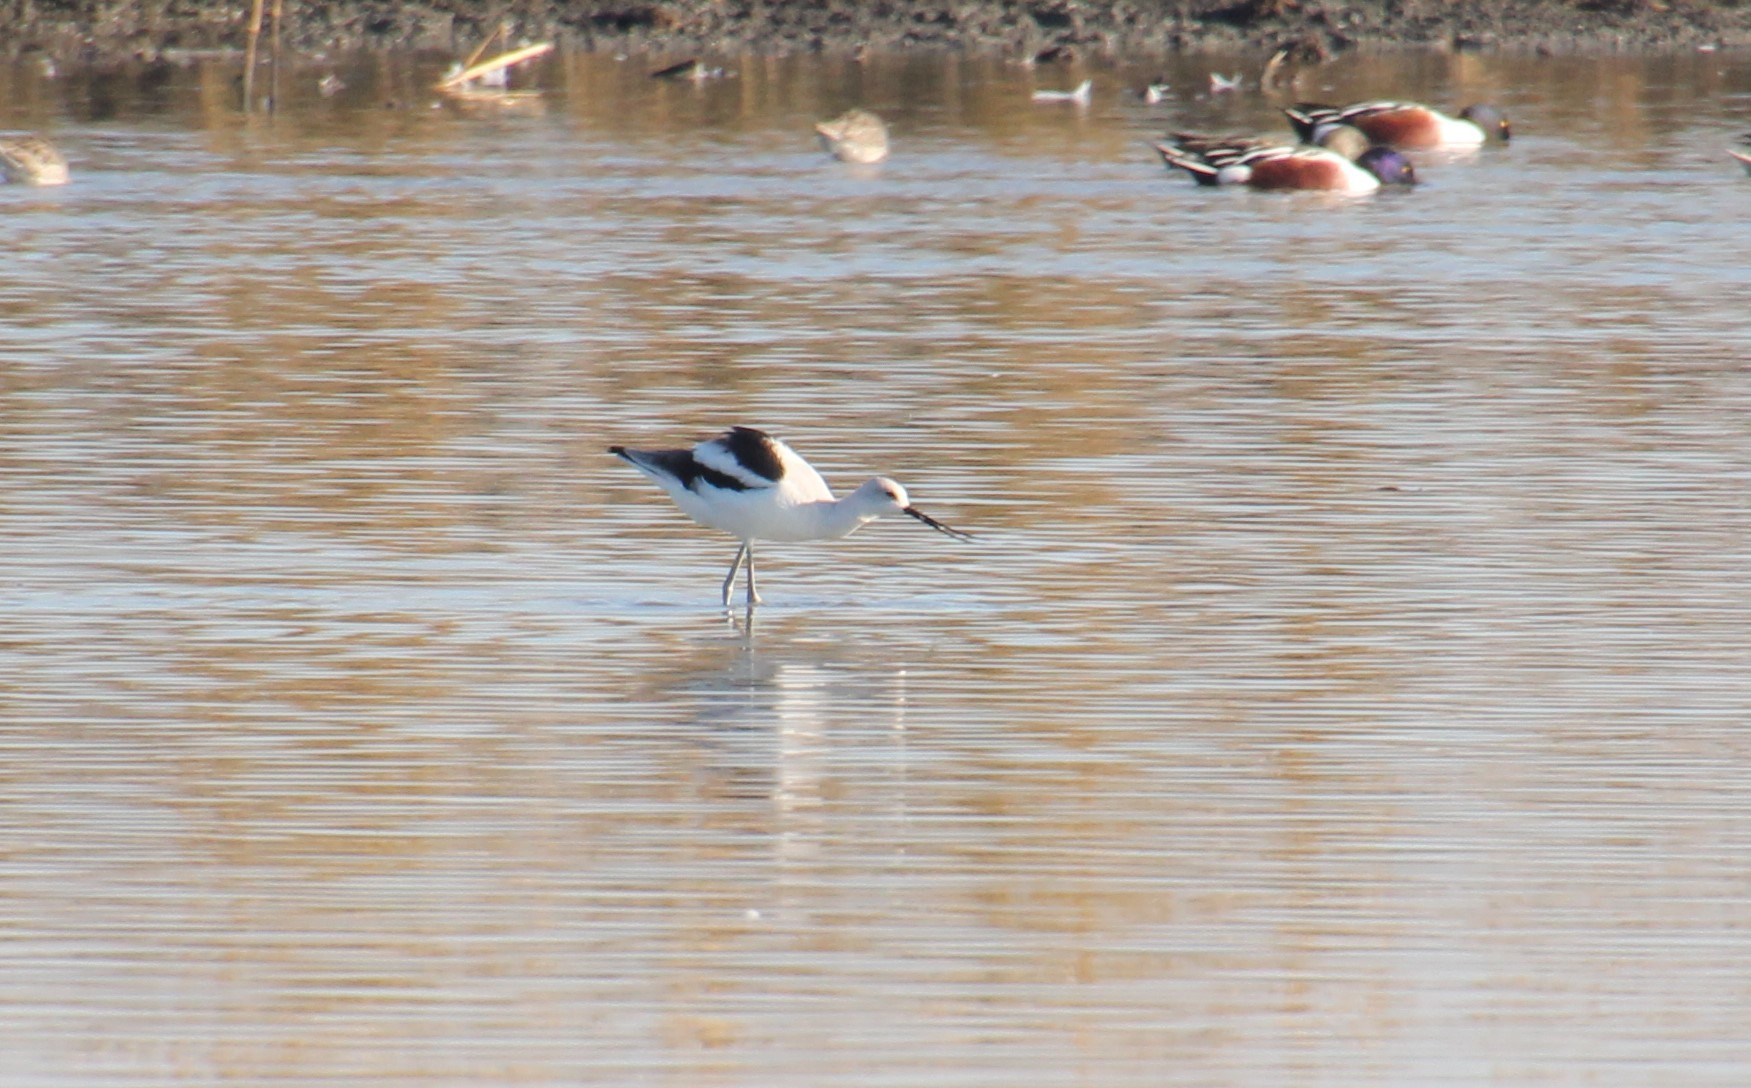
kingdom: Animalia
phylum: Chordata
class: Aves
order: Charadriiformes
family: Recurvirostridae
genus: Recurvirostra
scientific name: Recurvirostra americana
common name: American avocet
